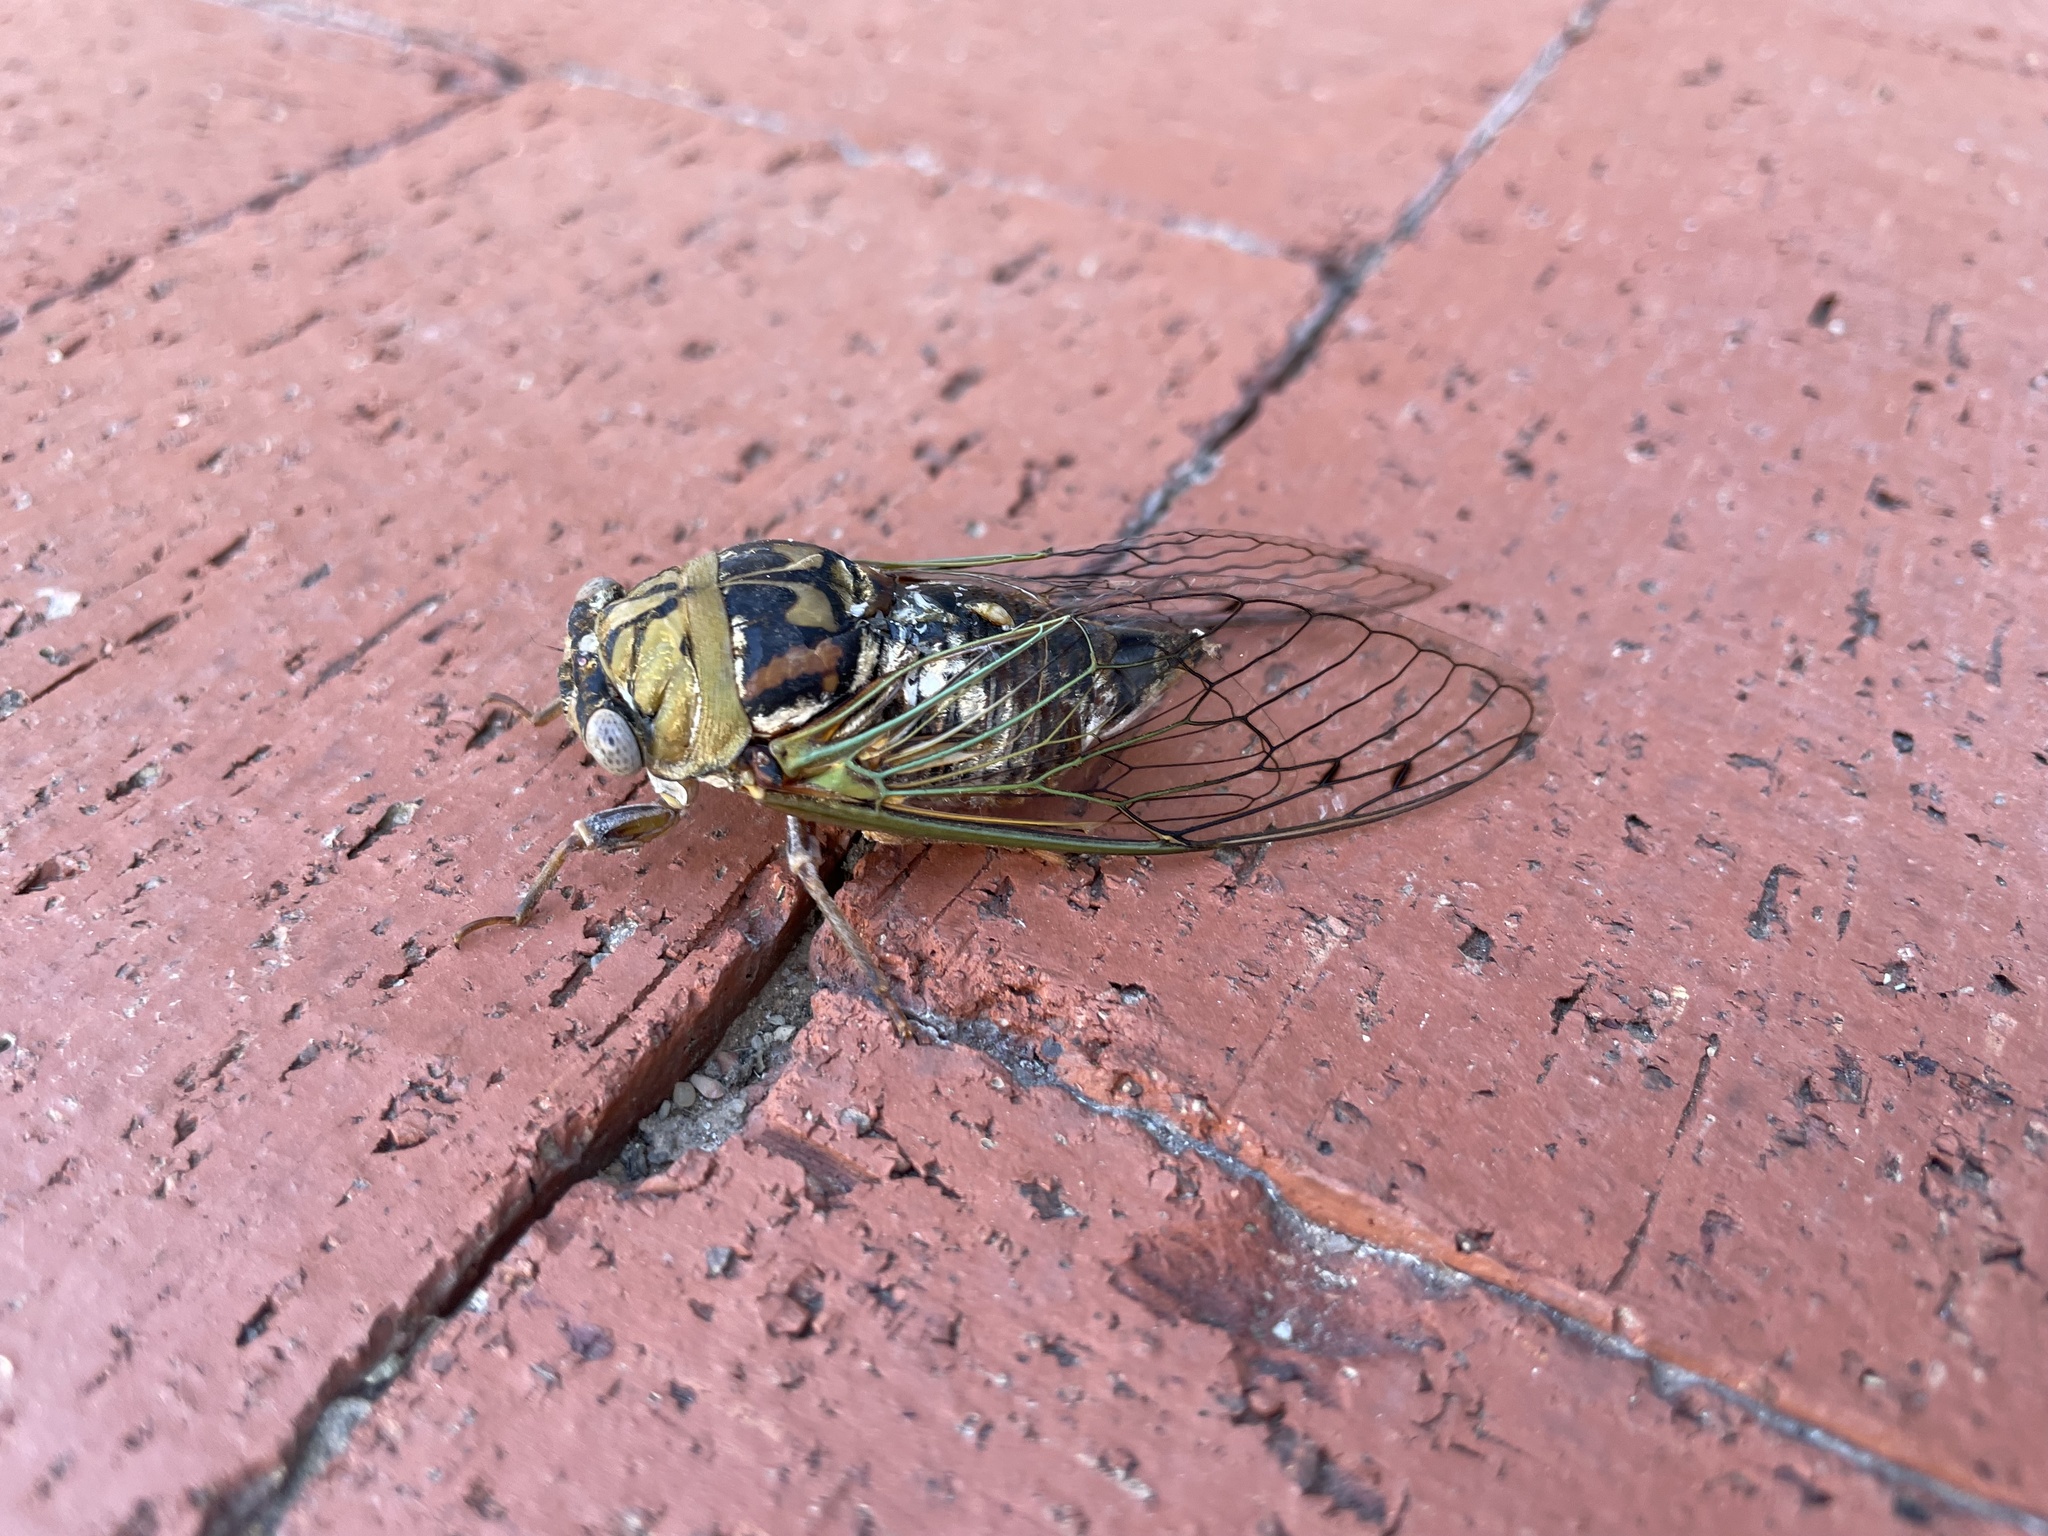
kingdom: Animalia
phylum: Arthropoda
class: Insecta
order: Hemiptera
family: Cicadidae
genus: Megatibicen
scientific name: Megatibicen resh
